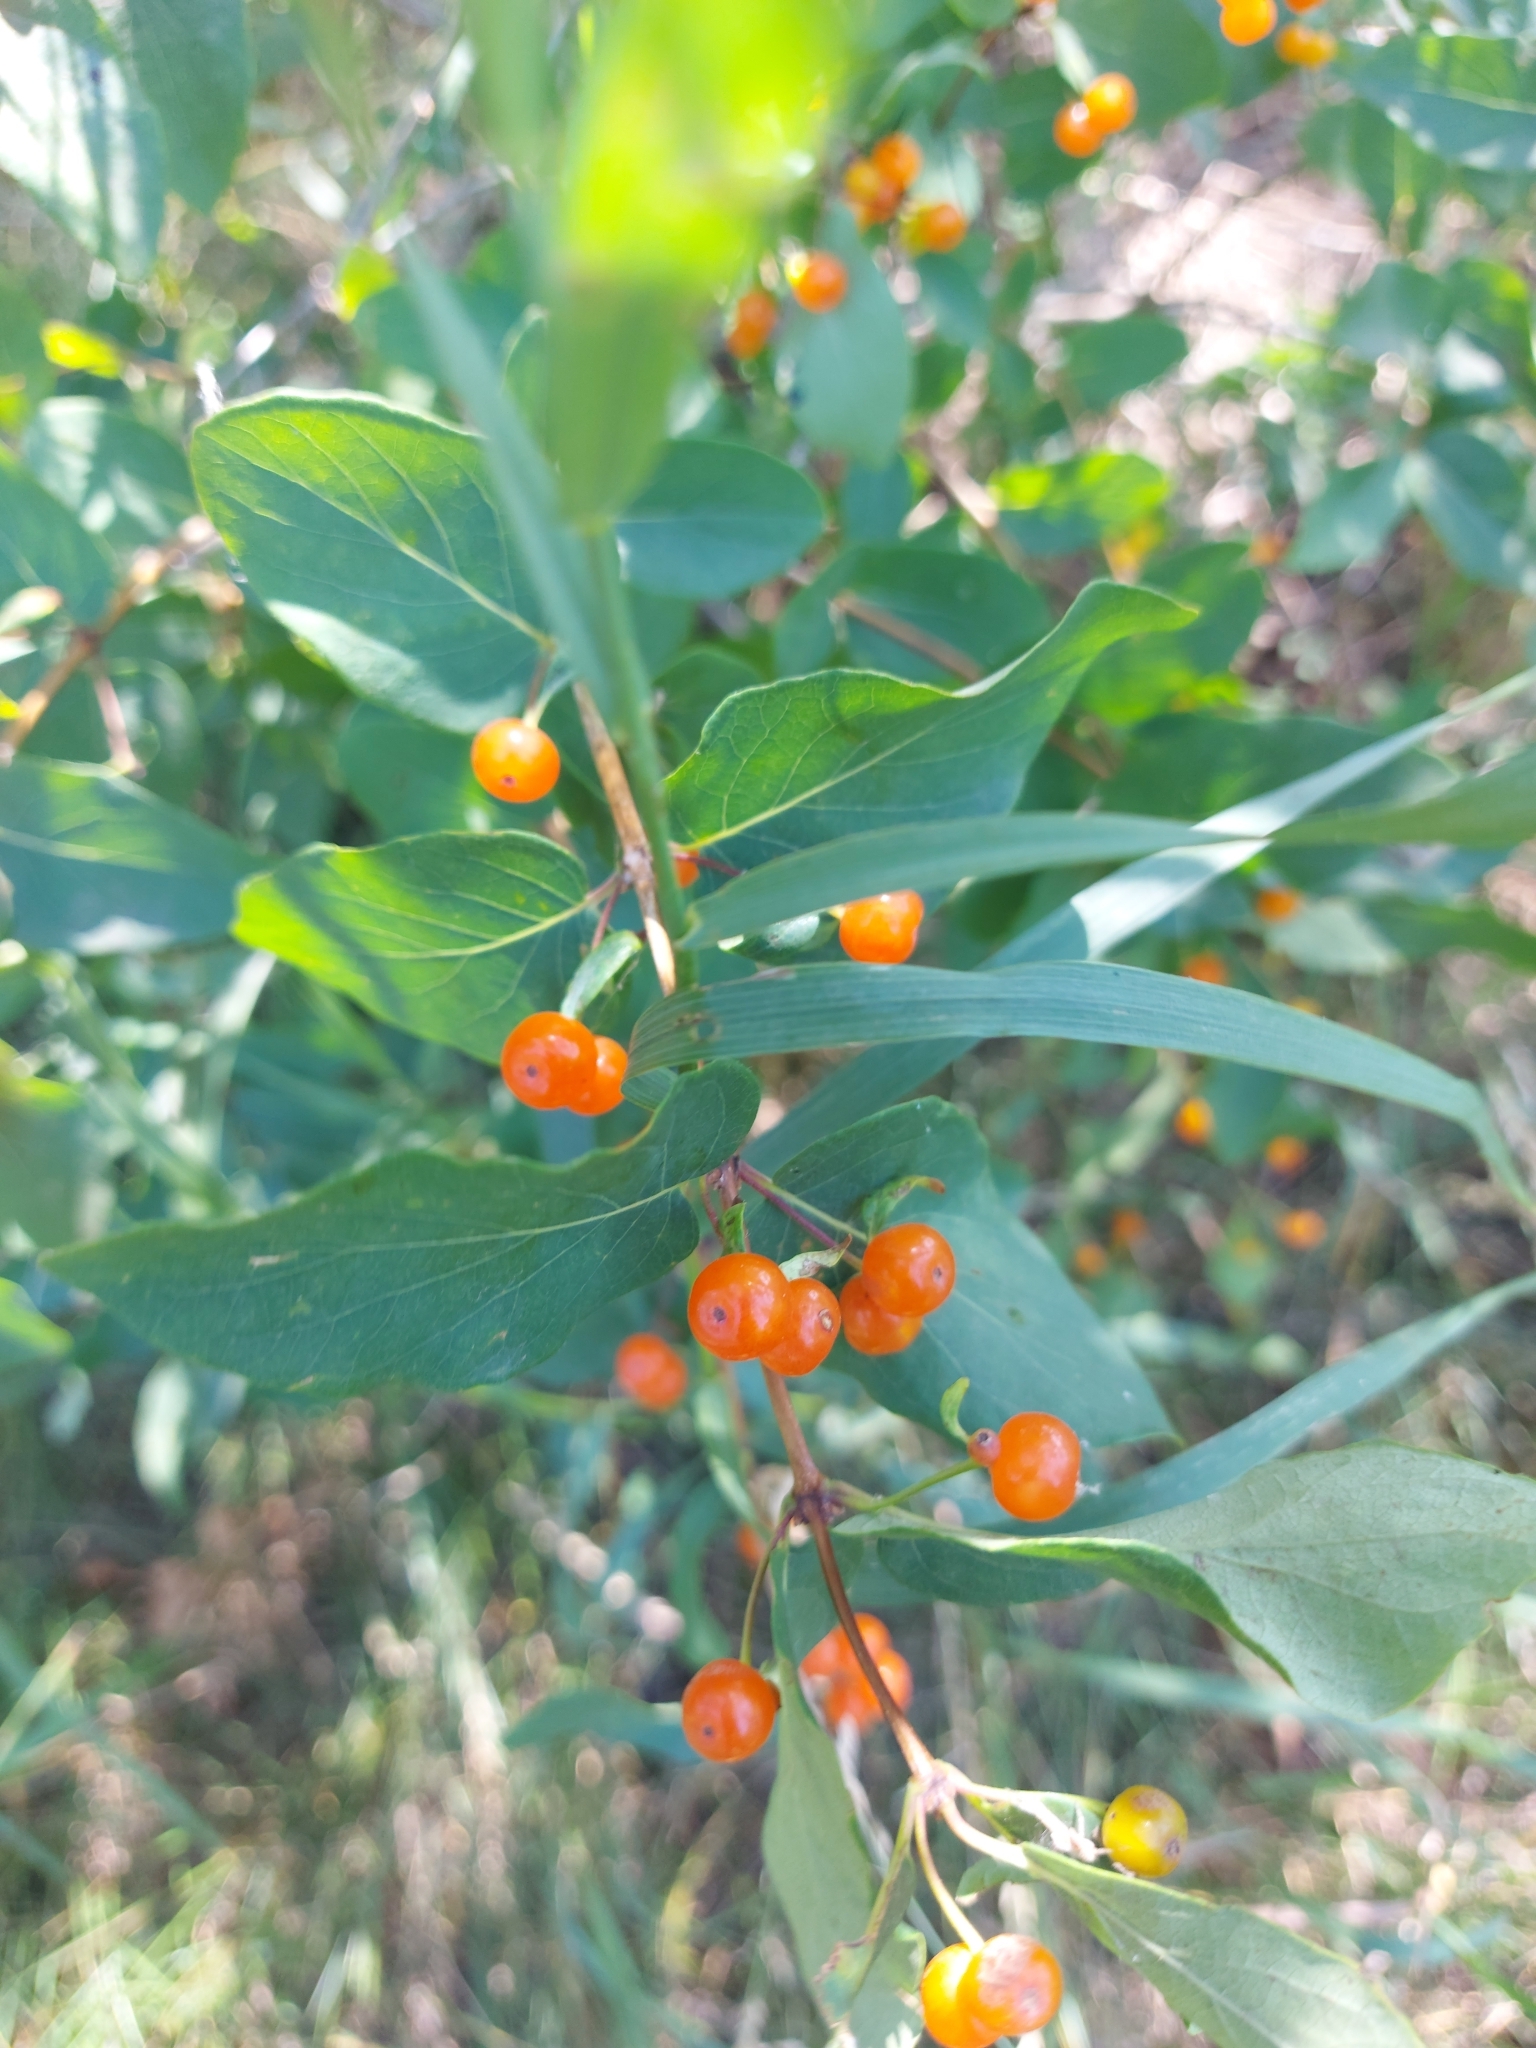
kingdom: Plantae
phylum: Tracheophyta
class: Magnoliopsida
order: Dipsacales
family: Caprifoliaceae
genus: Lonicera
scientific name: Lonicera tatarica
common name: Tatarian honeysuckle
